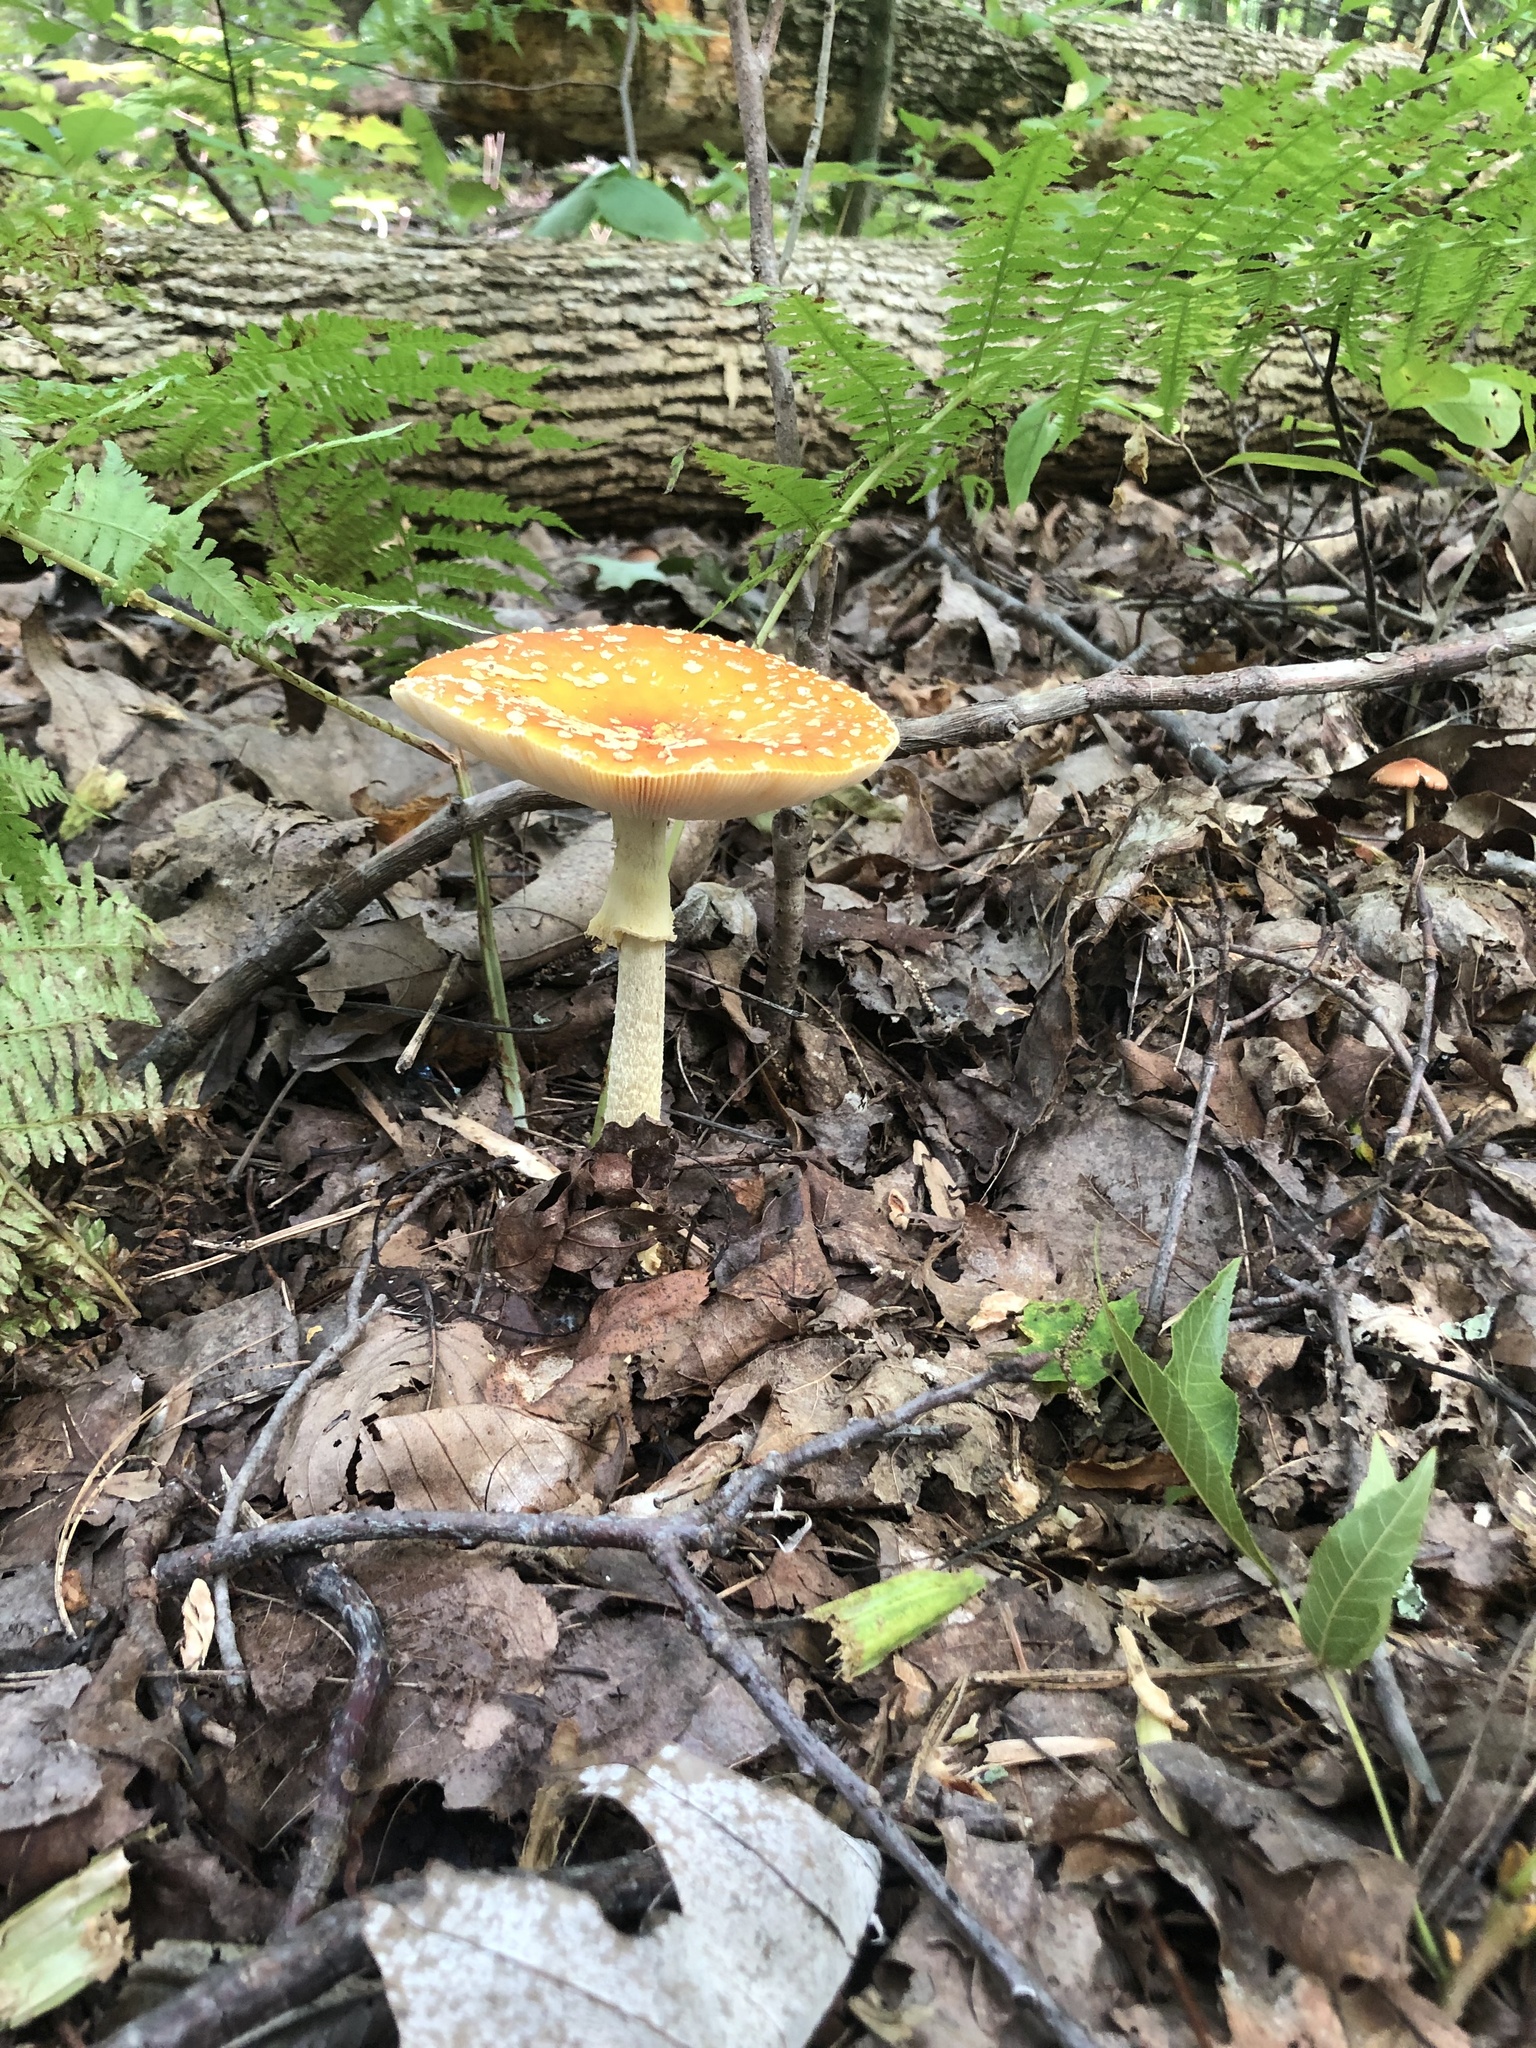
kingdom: Fungi
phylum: Basidiomycota
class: Agaricomycetes
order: Agaricales
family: Amanitaceae
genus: Amanita
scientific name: Amanita muscaria
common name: Fly agaric
